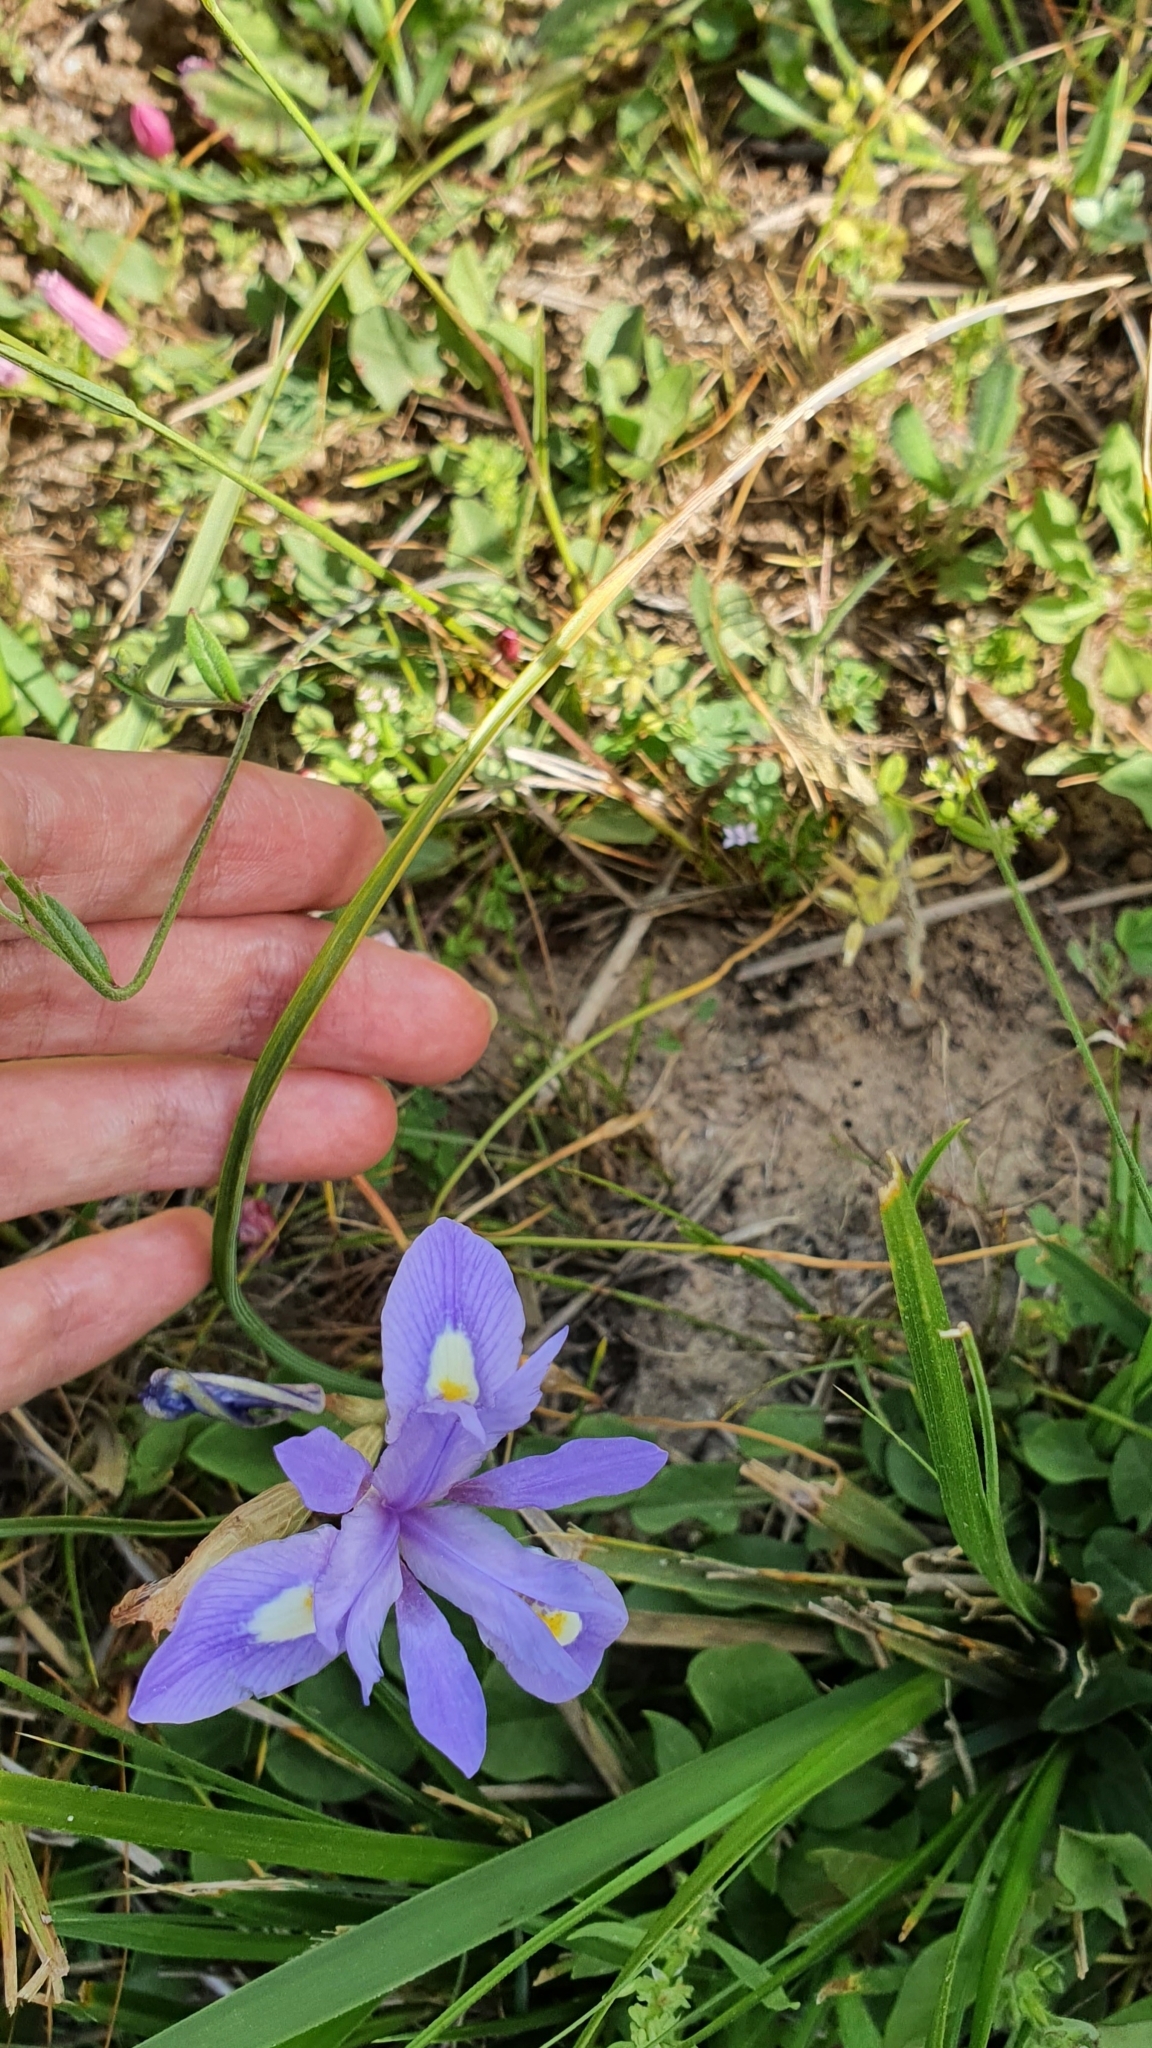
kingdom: Plantae
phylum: Tracheophyta
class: Liliopsida
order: Asparagales
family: Iridaceae
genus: Moraea
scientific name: Moraea sisyrinchium
